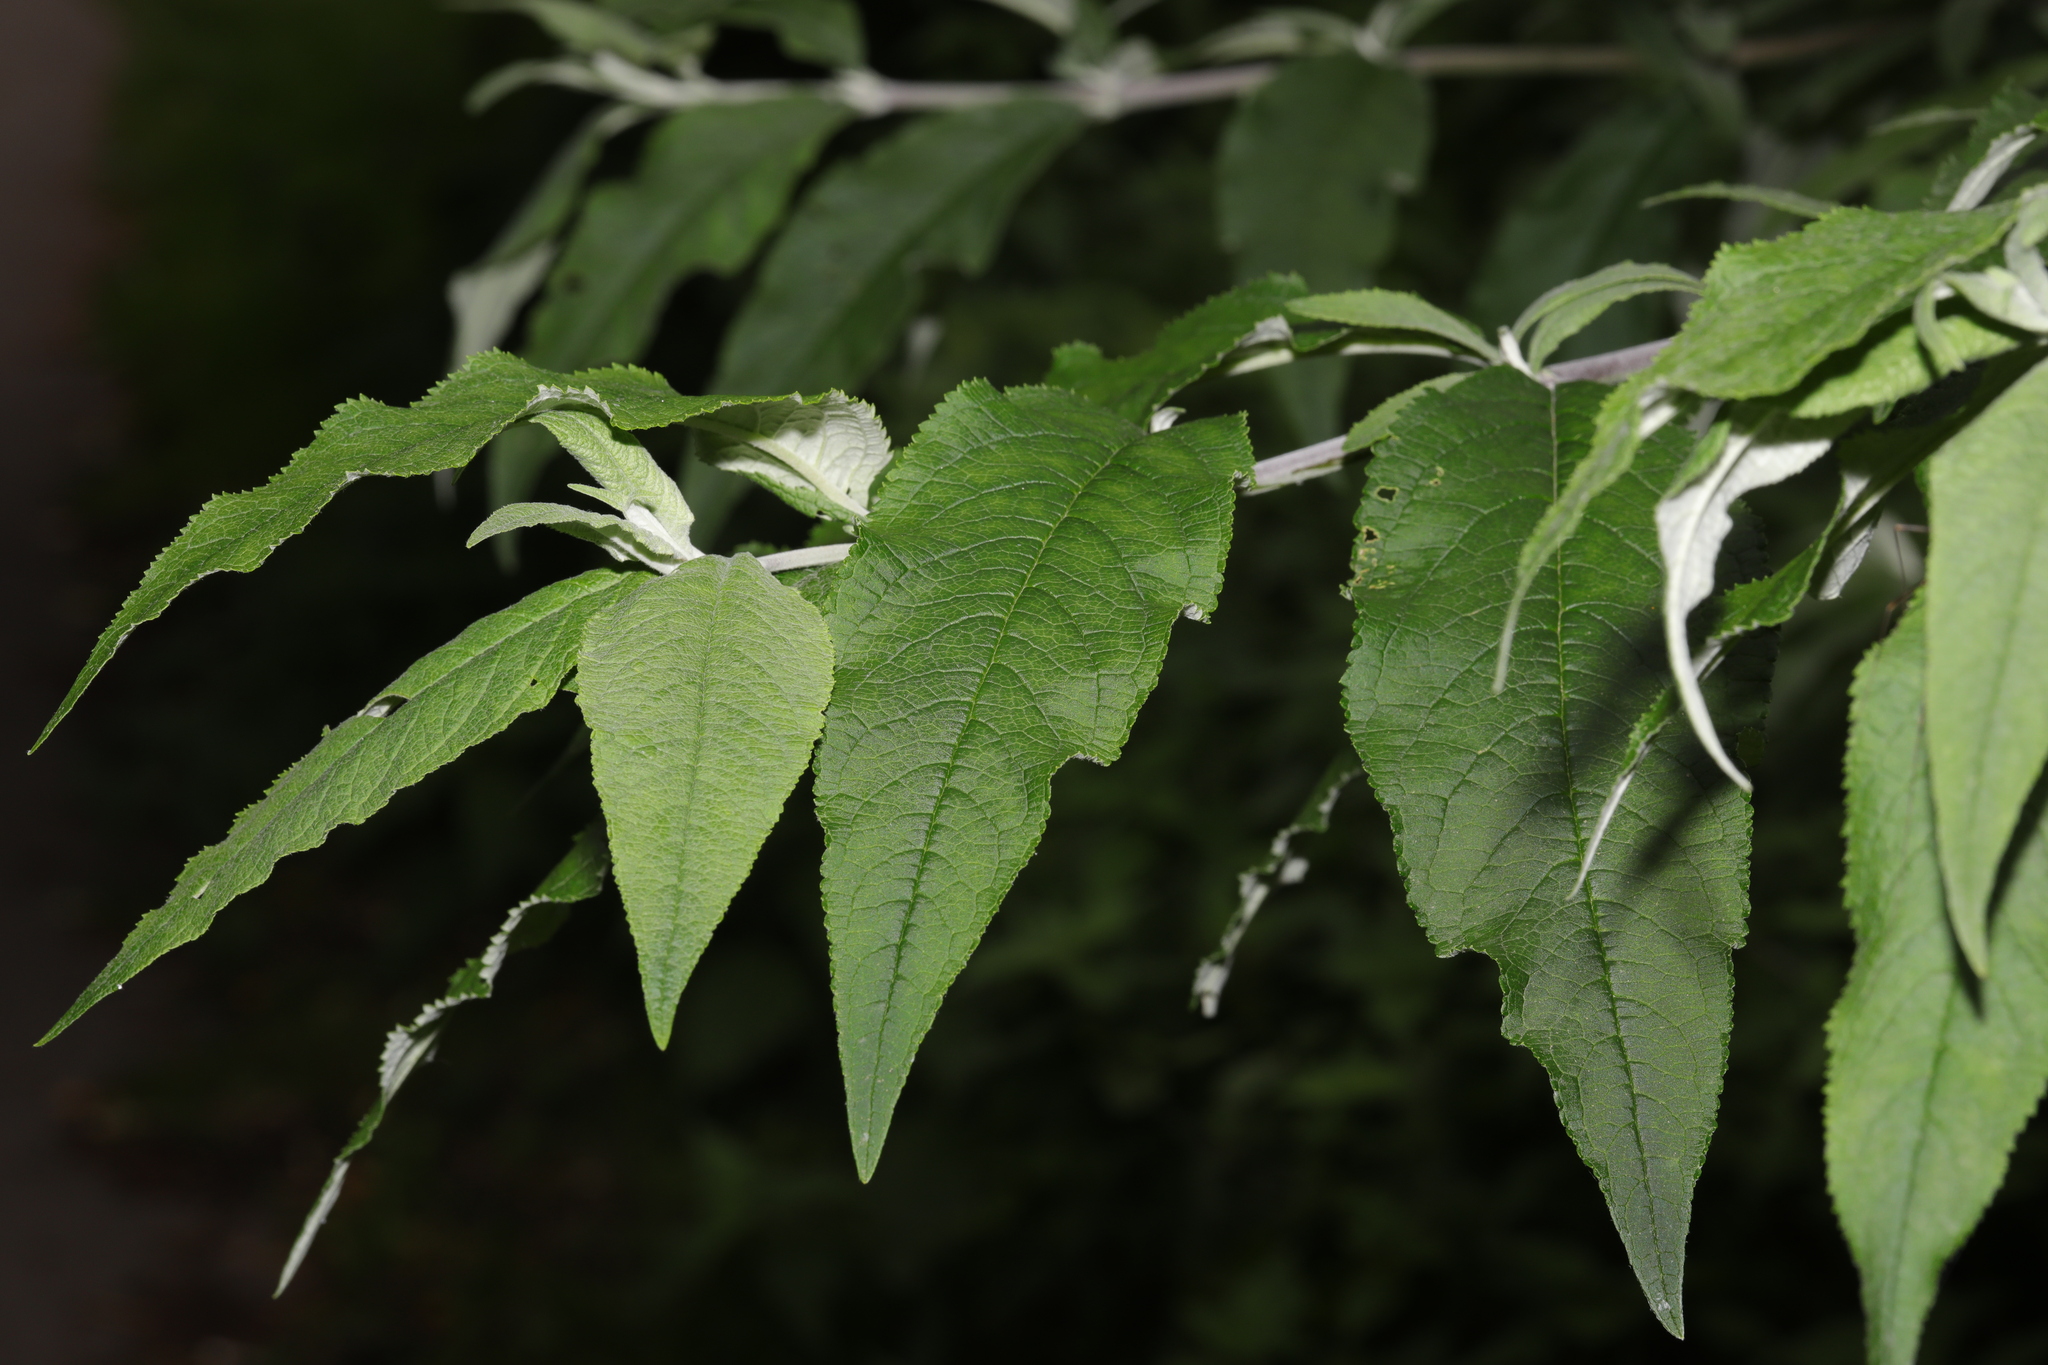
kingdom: Plantae
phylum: Tracheophyta
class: Magnoliopsida
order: Lamiales
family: Scrophulariaceae
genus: Buddleja
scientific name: Buddleja davidii
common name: Butterfly-bush
